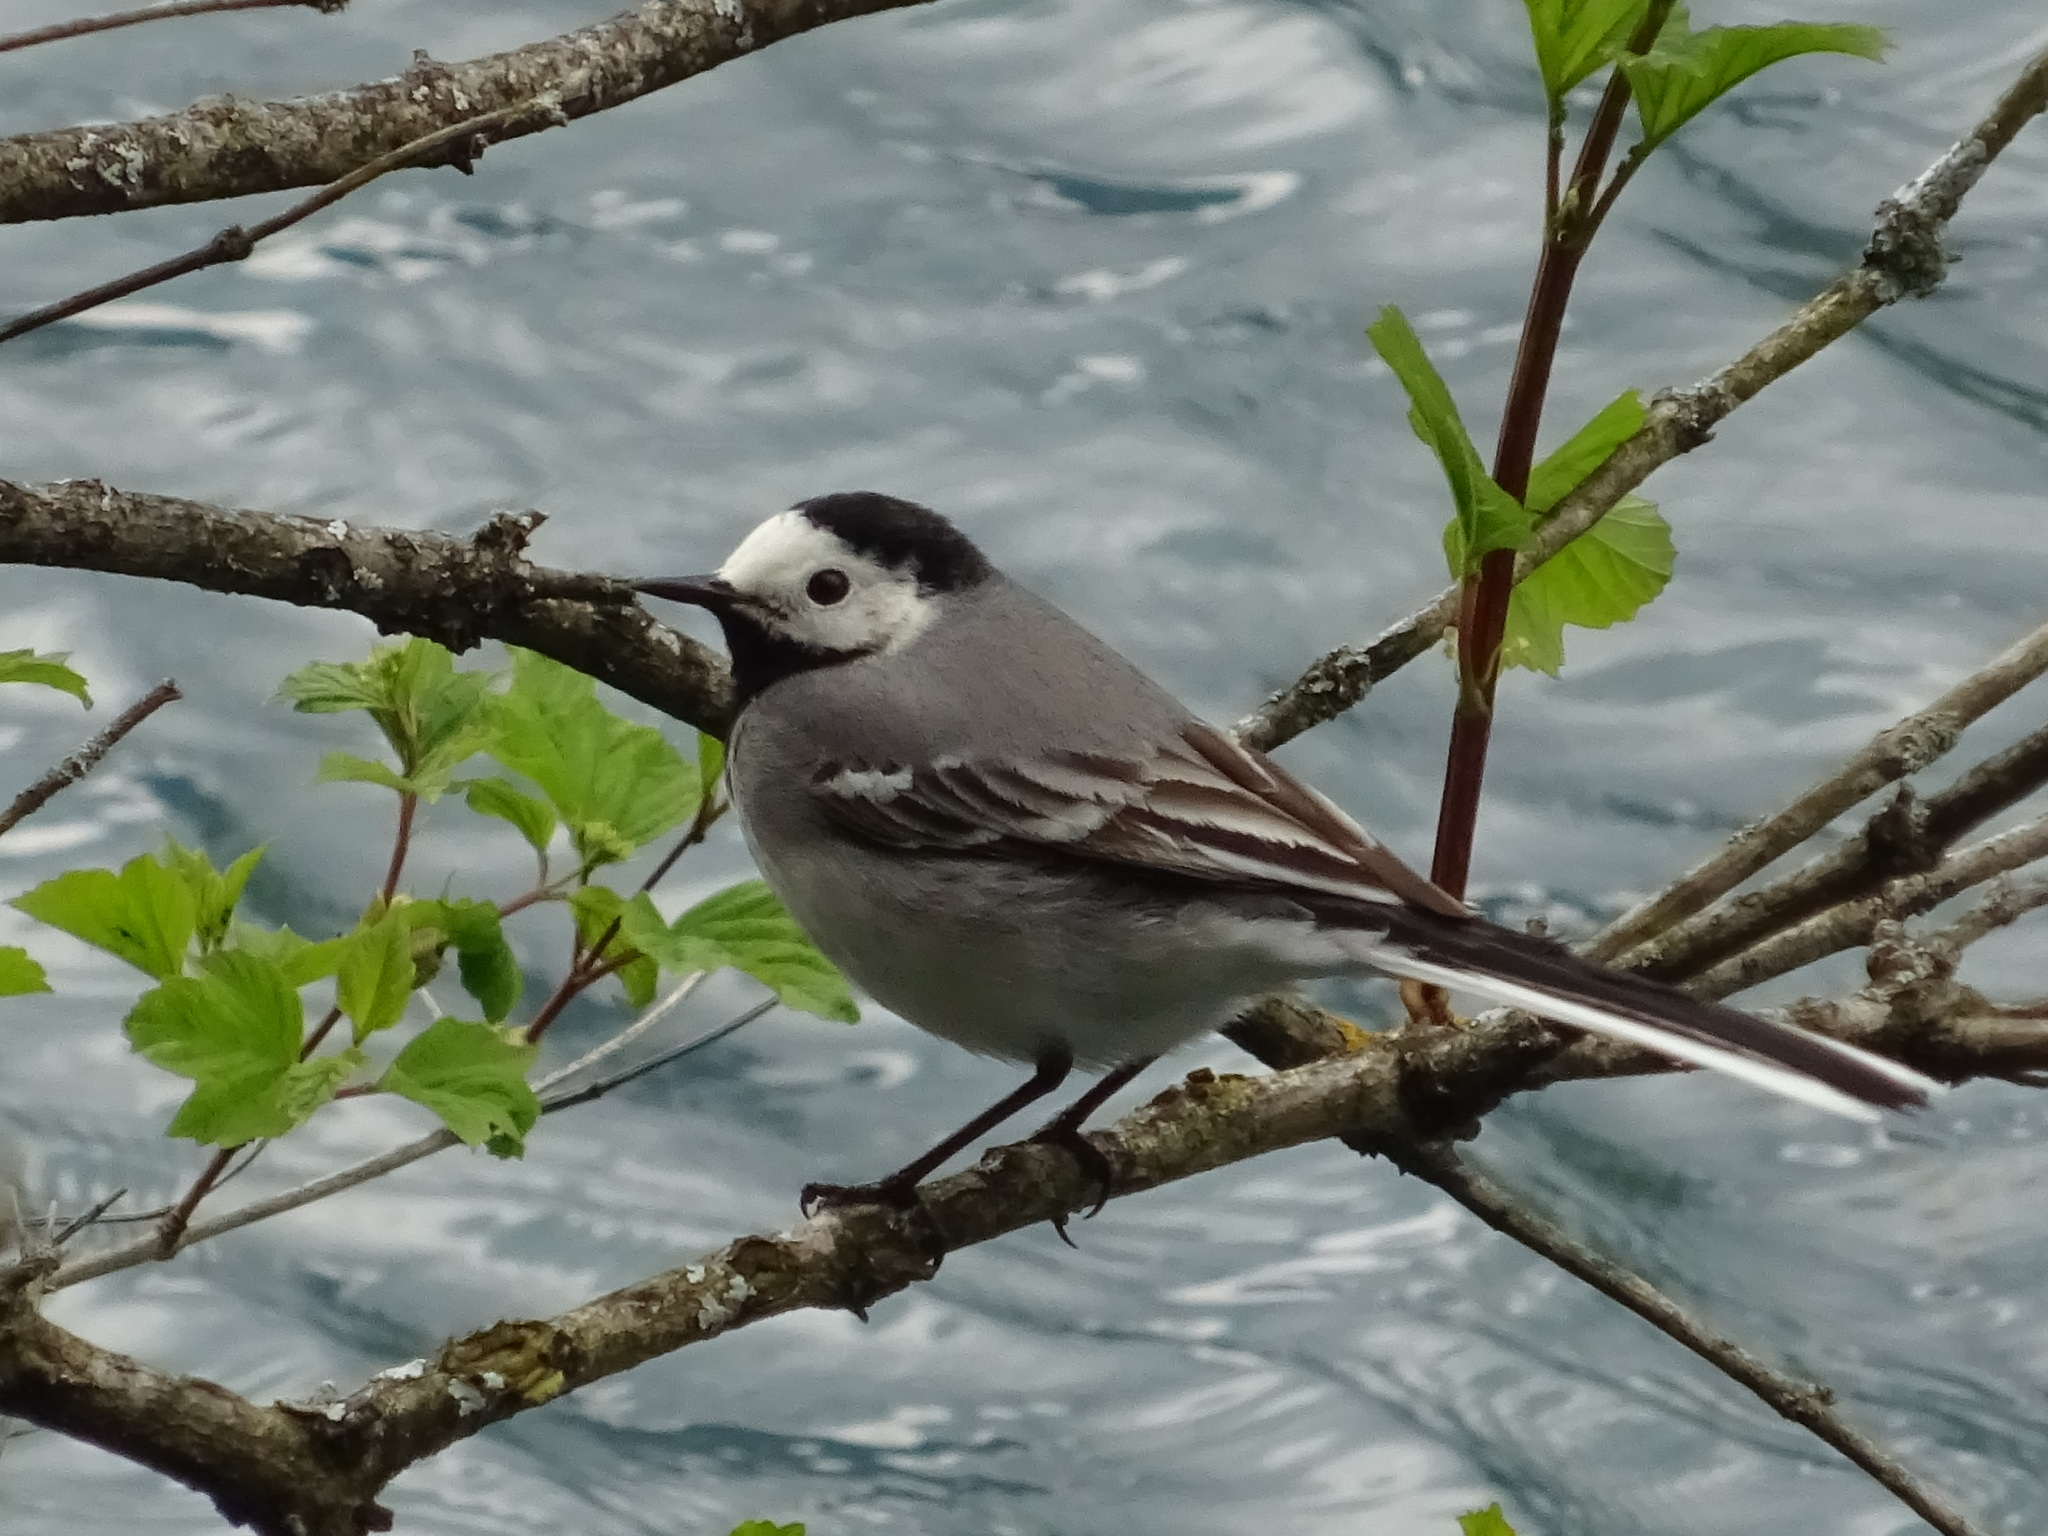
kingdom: Animalia
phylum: Chordata
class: Aves
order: Passeriformes
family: Motacillidae
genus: Motacilla
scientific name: Motacilla alba
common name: White wagtail
